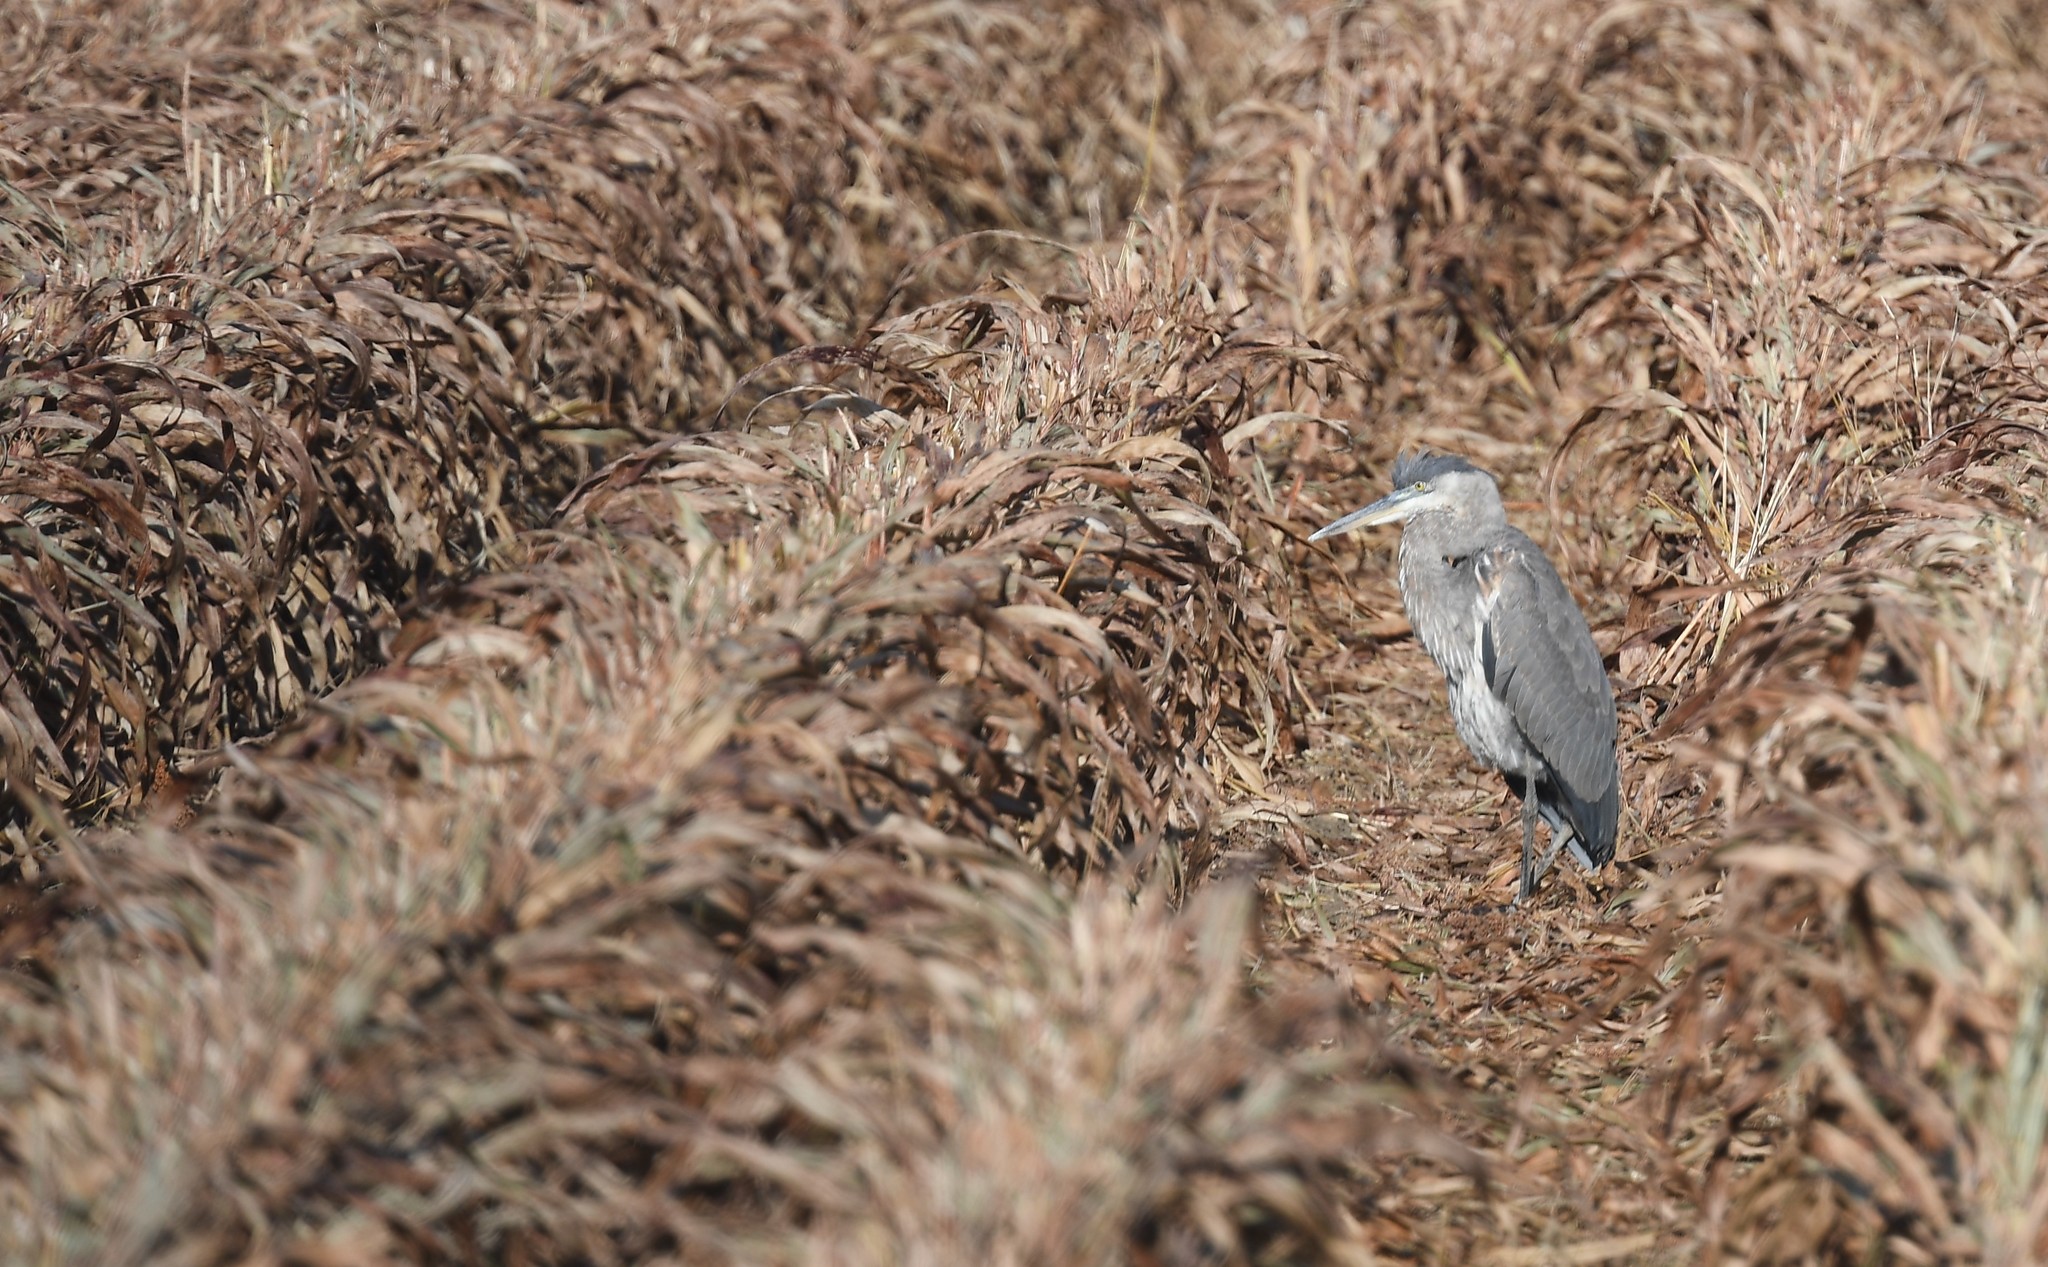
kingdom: Animalia
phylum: Chordata
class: Aves
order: Pelecaniformes
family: Ardeidae
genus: Ardea
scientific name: Ardea herodias
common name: Great blue heron
